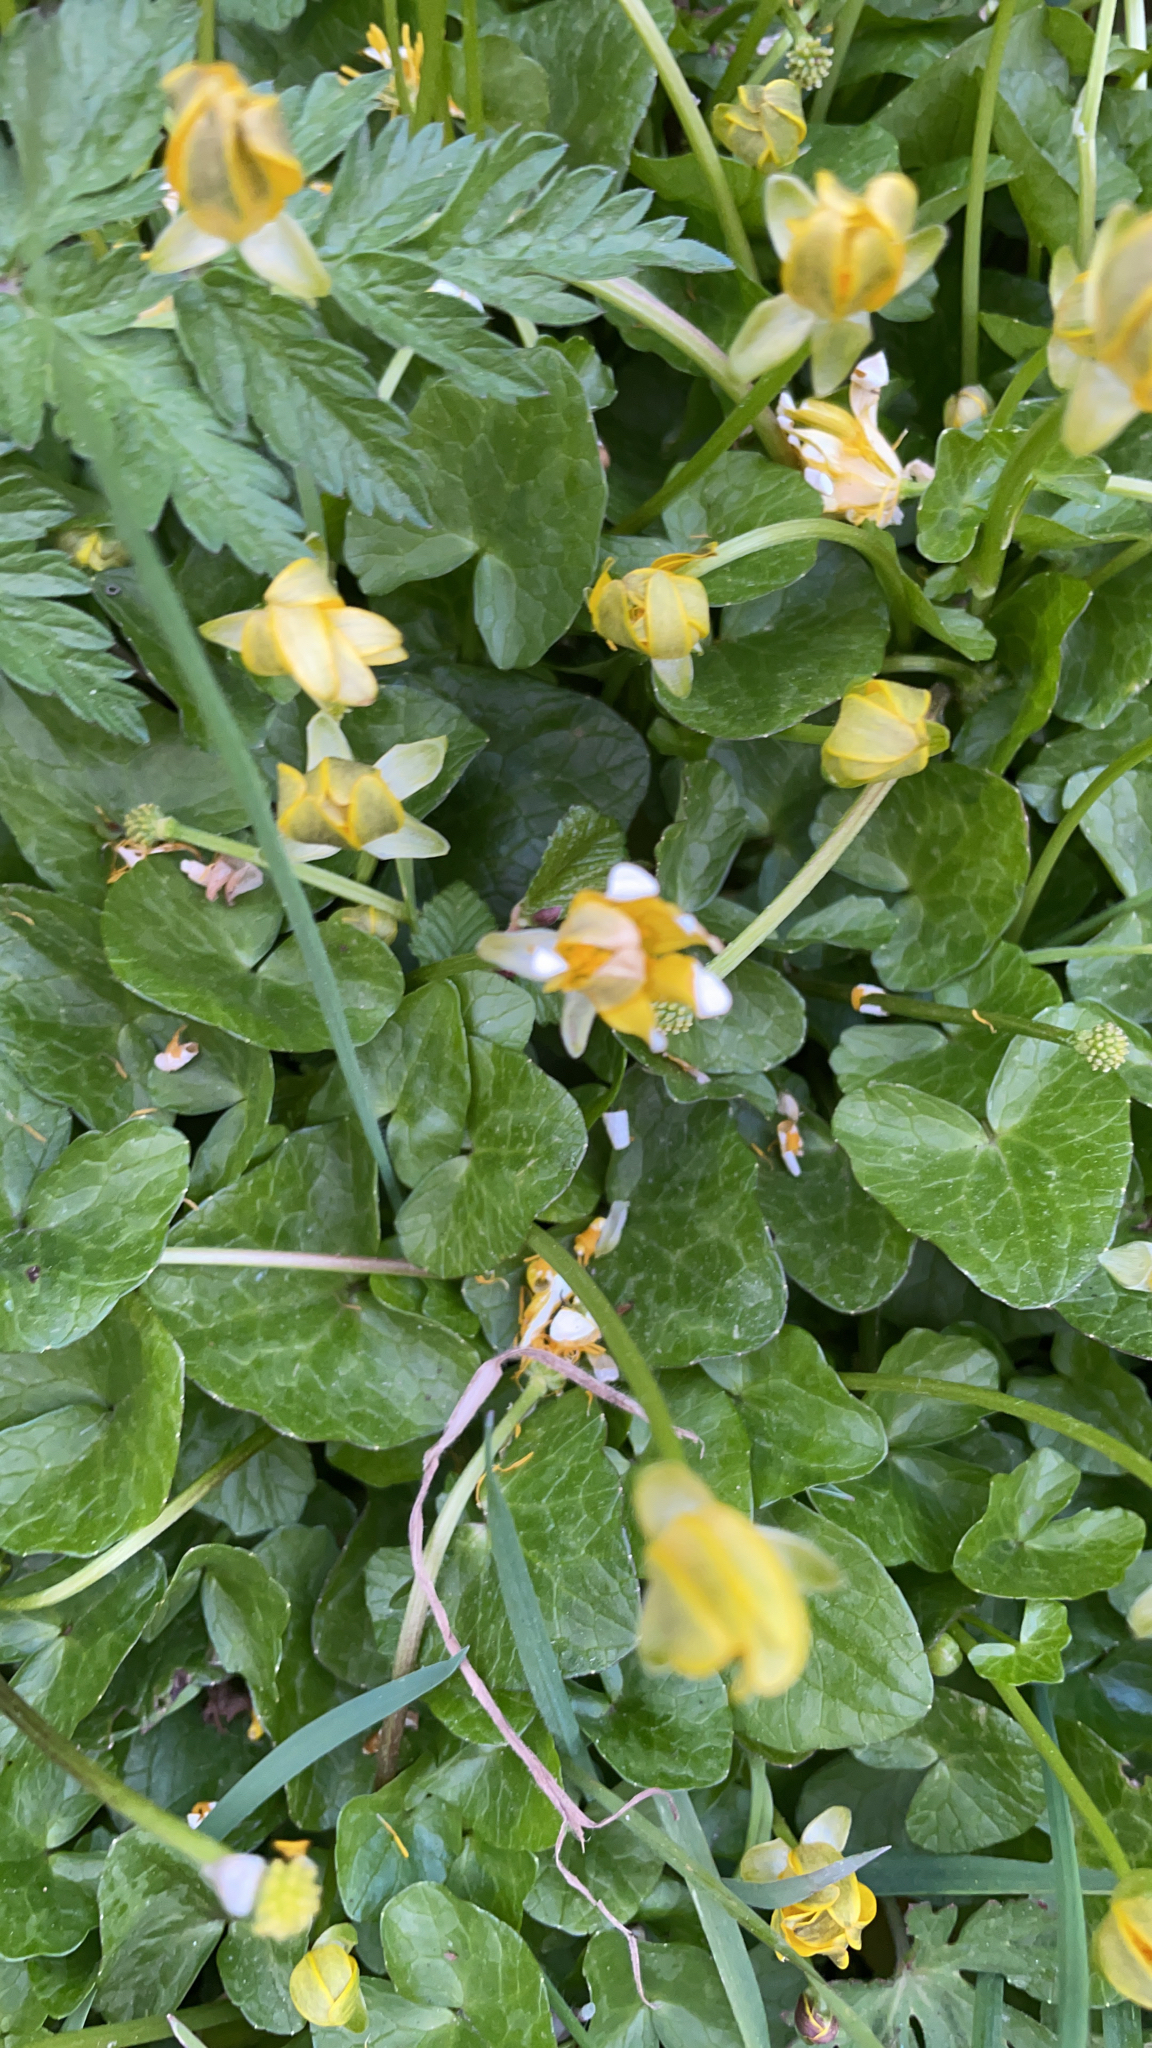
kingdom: Plantae
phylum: Tracheophyta
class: Magnoliopsida
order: Ranunculales
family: Ranunculaceae
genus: Ficaria
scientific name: Ficaria verna
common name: Lesser celandine
